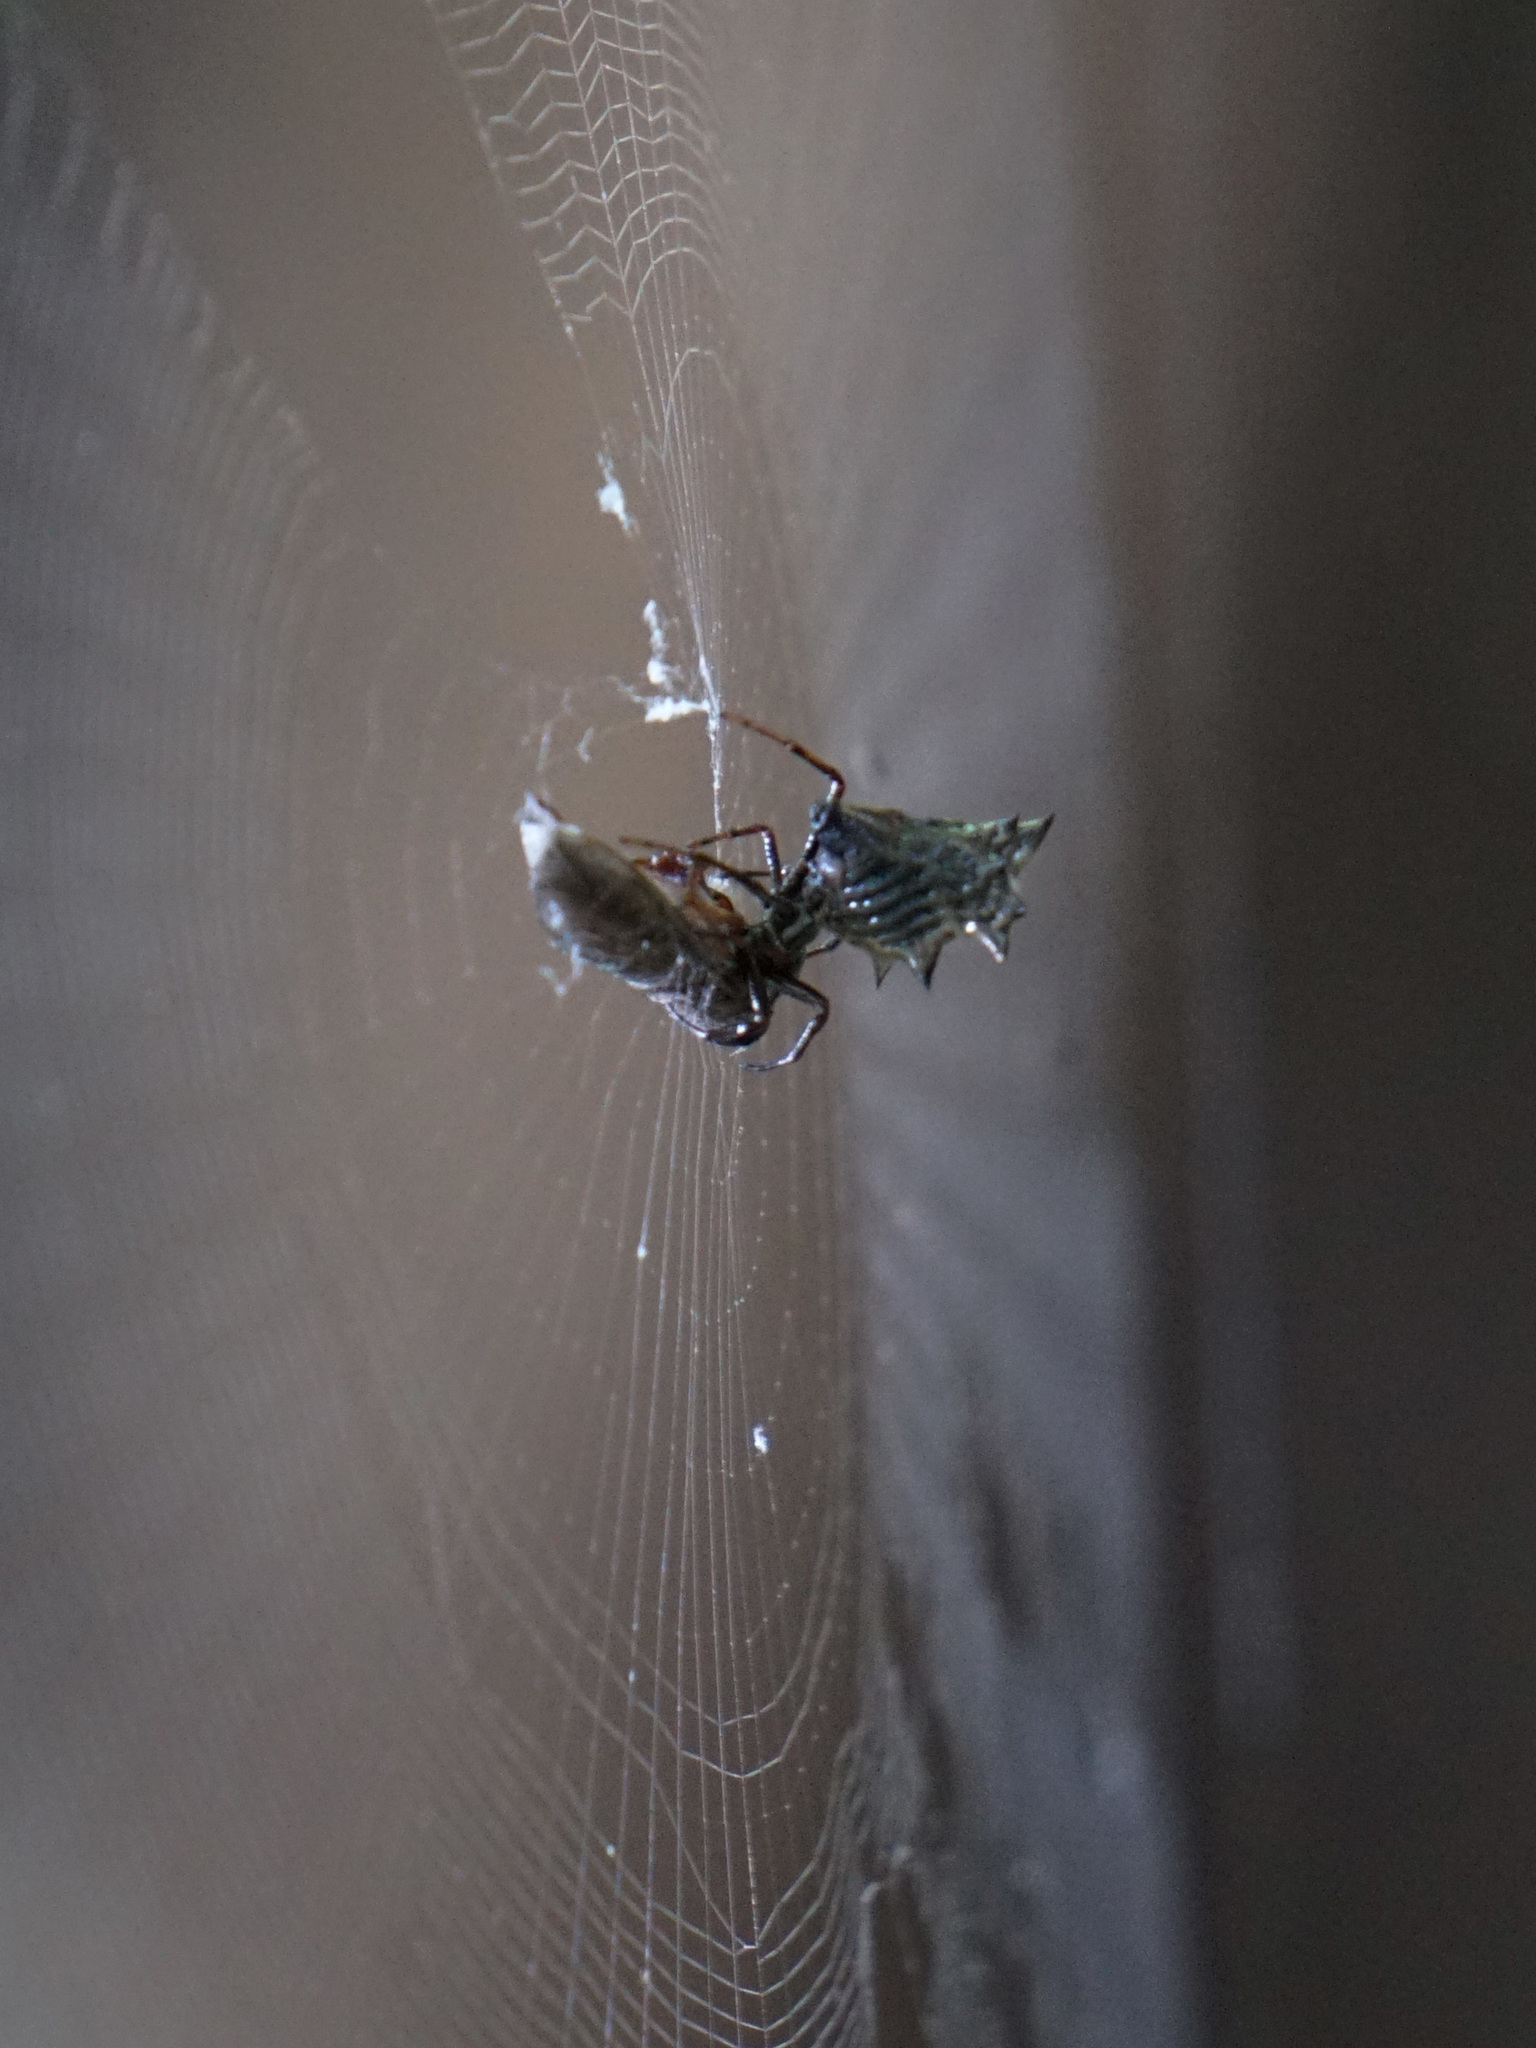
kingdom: Animalia
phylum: Arthropoda
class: Arachnida
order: Araneae
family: Araneidae
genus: Micrathena
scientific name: Micrathena gracilis
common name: Orb weavers
